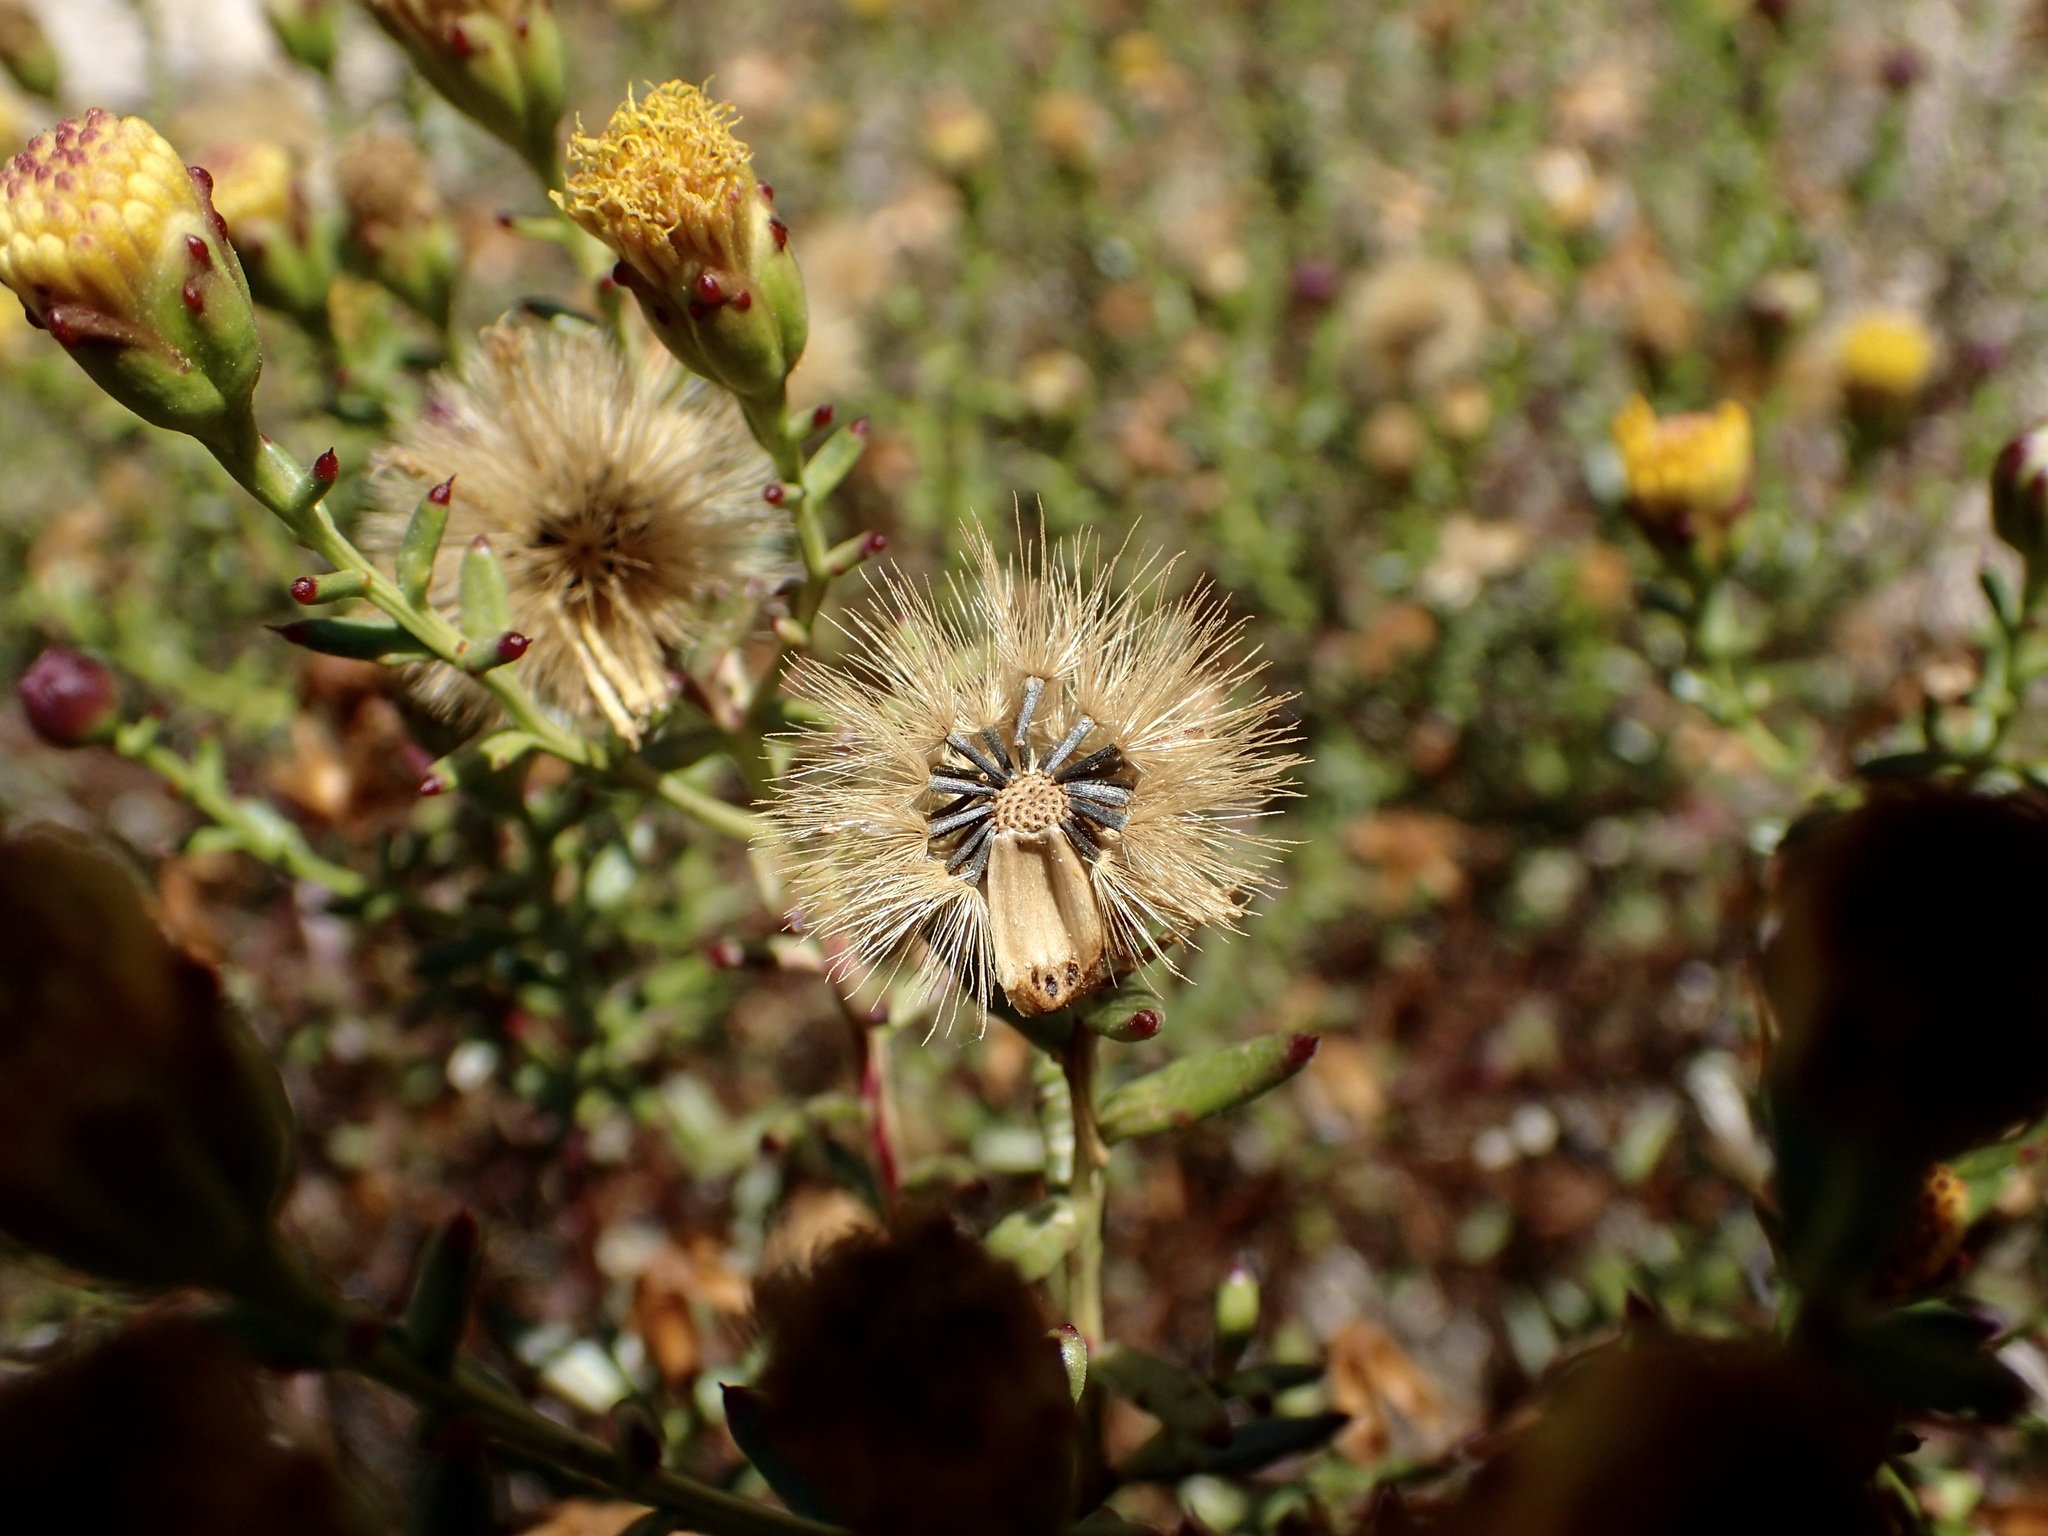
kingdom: Plantae
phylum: Tracheophyta
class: Magnoliopsida
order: Asterales
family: Asteraceae
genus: Bajacalia
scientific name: Bajacalia crassifolia
